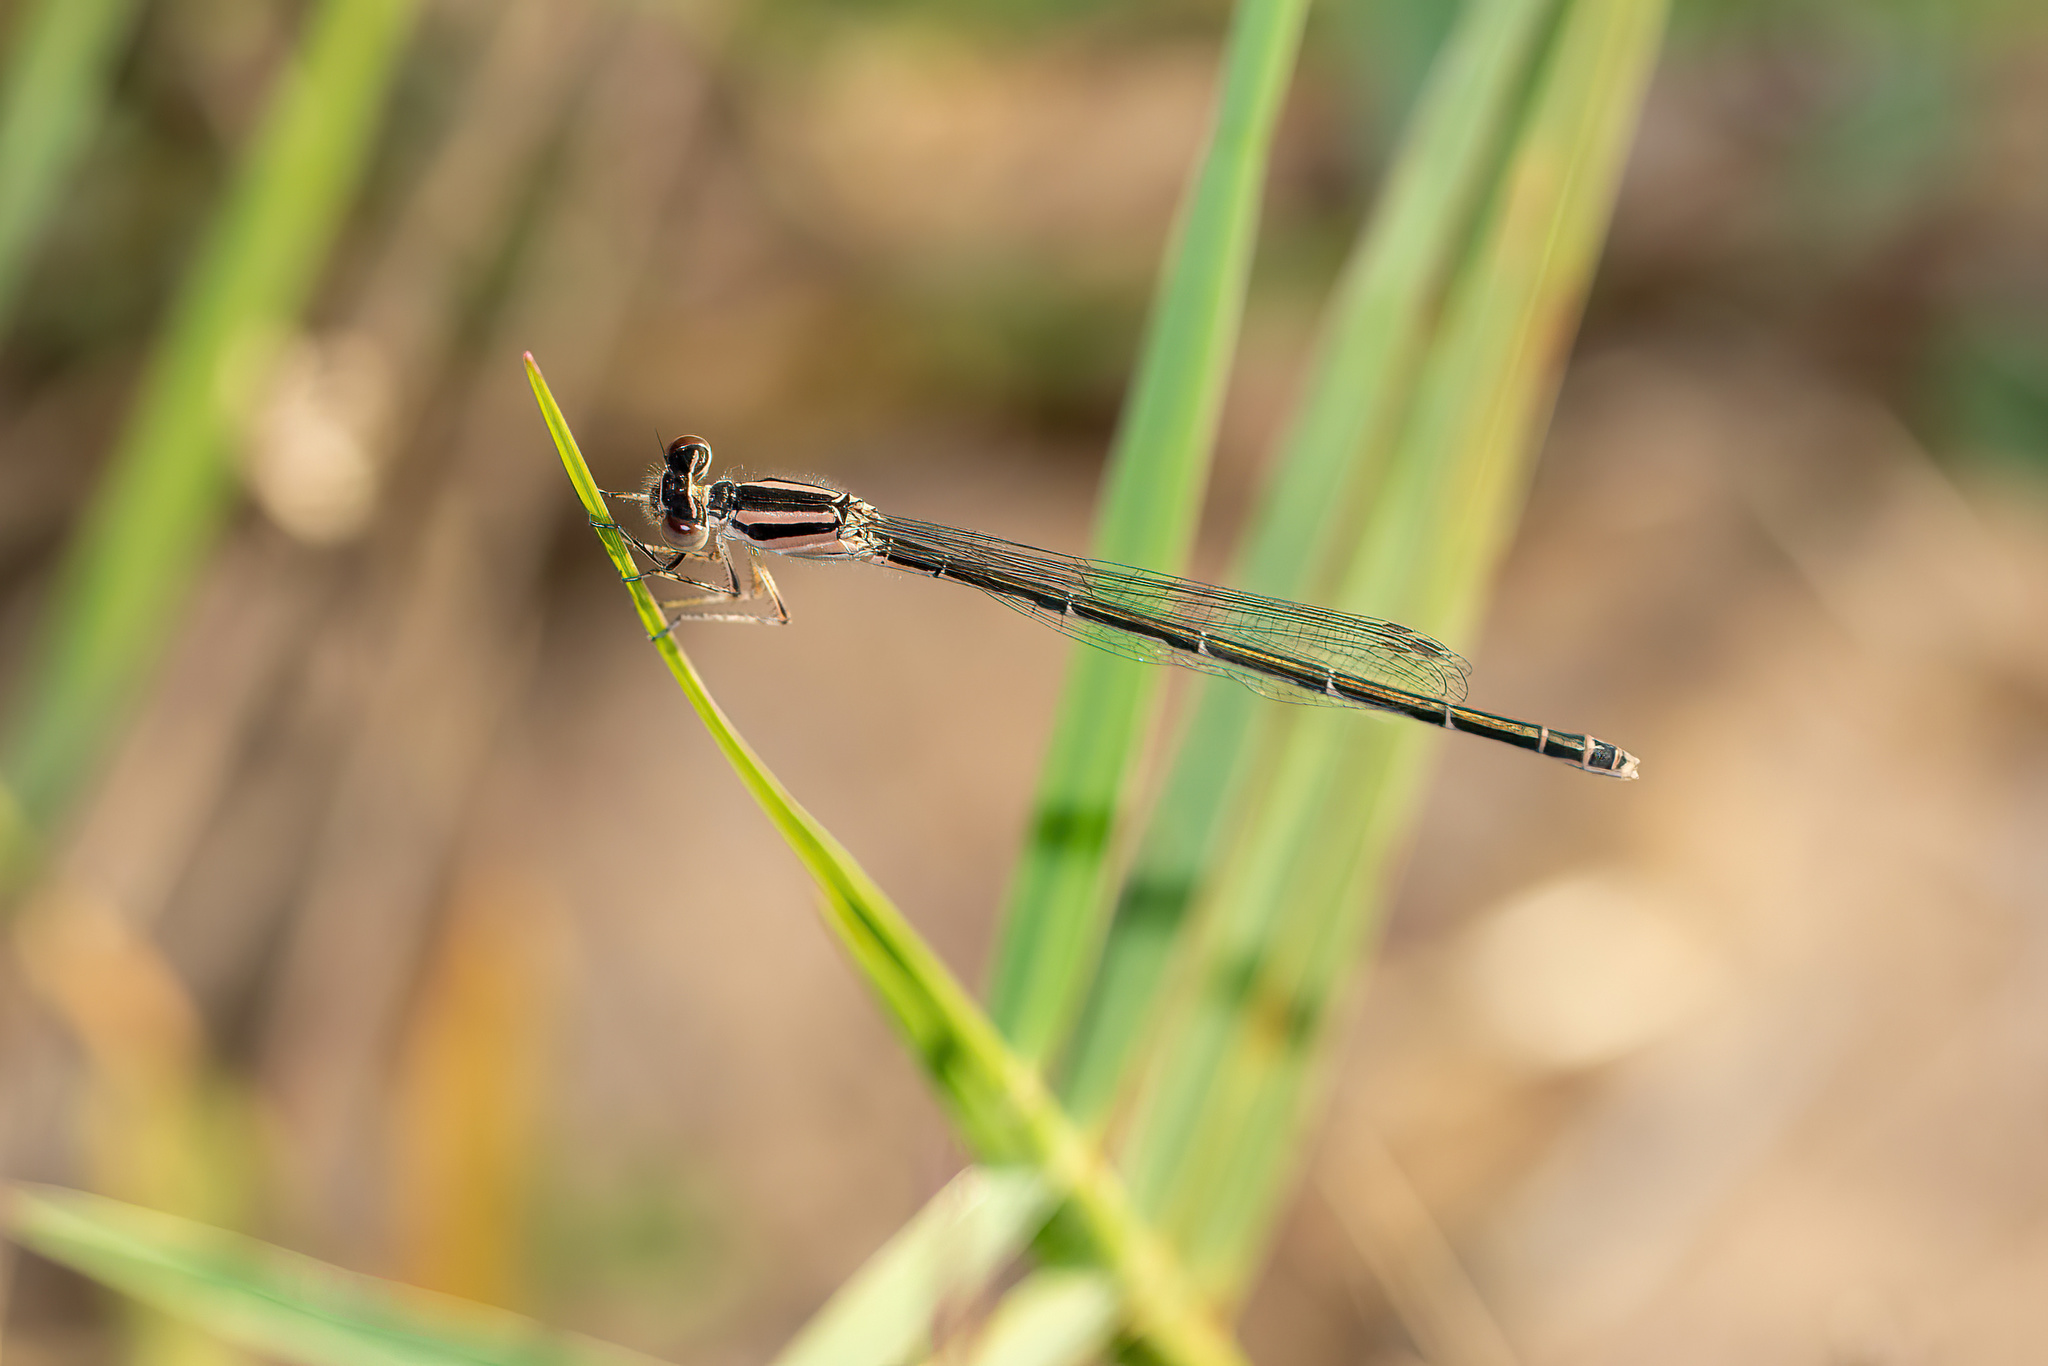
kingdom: Animalia
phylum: Arthropoda
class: Insecta
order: Odonata
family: Coenagrionidae
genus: Enallagma
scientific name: Enallagma doubledayi
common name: Atlantic bluet
